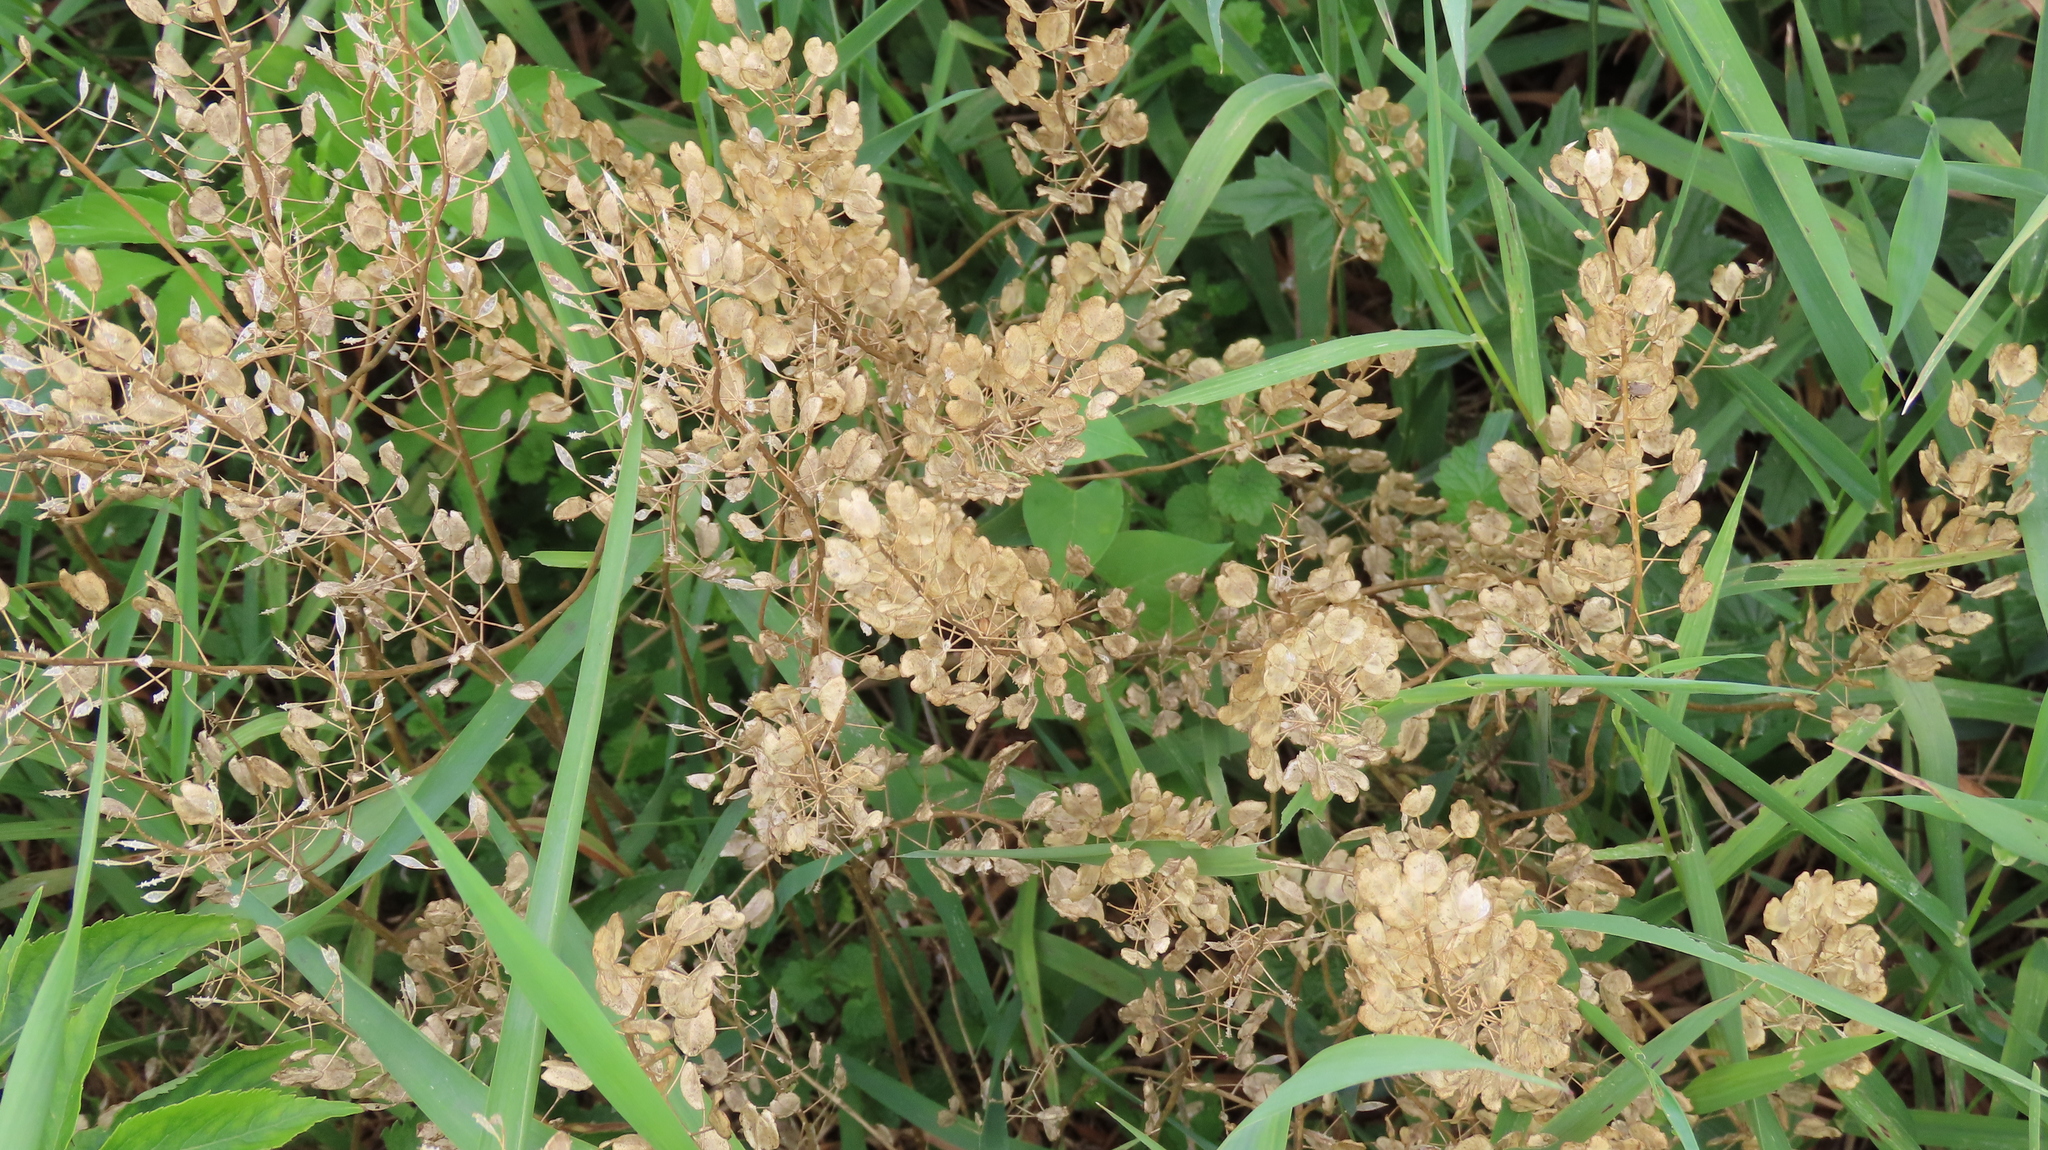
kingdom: Plantae
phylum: Tracheophyta
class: Magnoliopsida
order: Brassicales
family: Brassicaceae
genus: Thlaspi
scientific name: Thlaspi arvense
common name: Field pennycress
